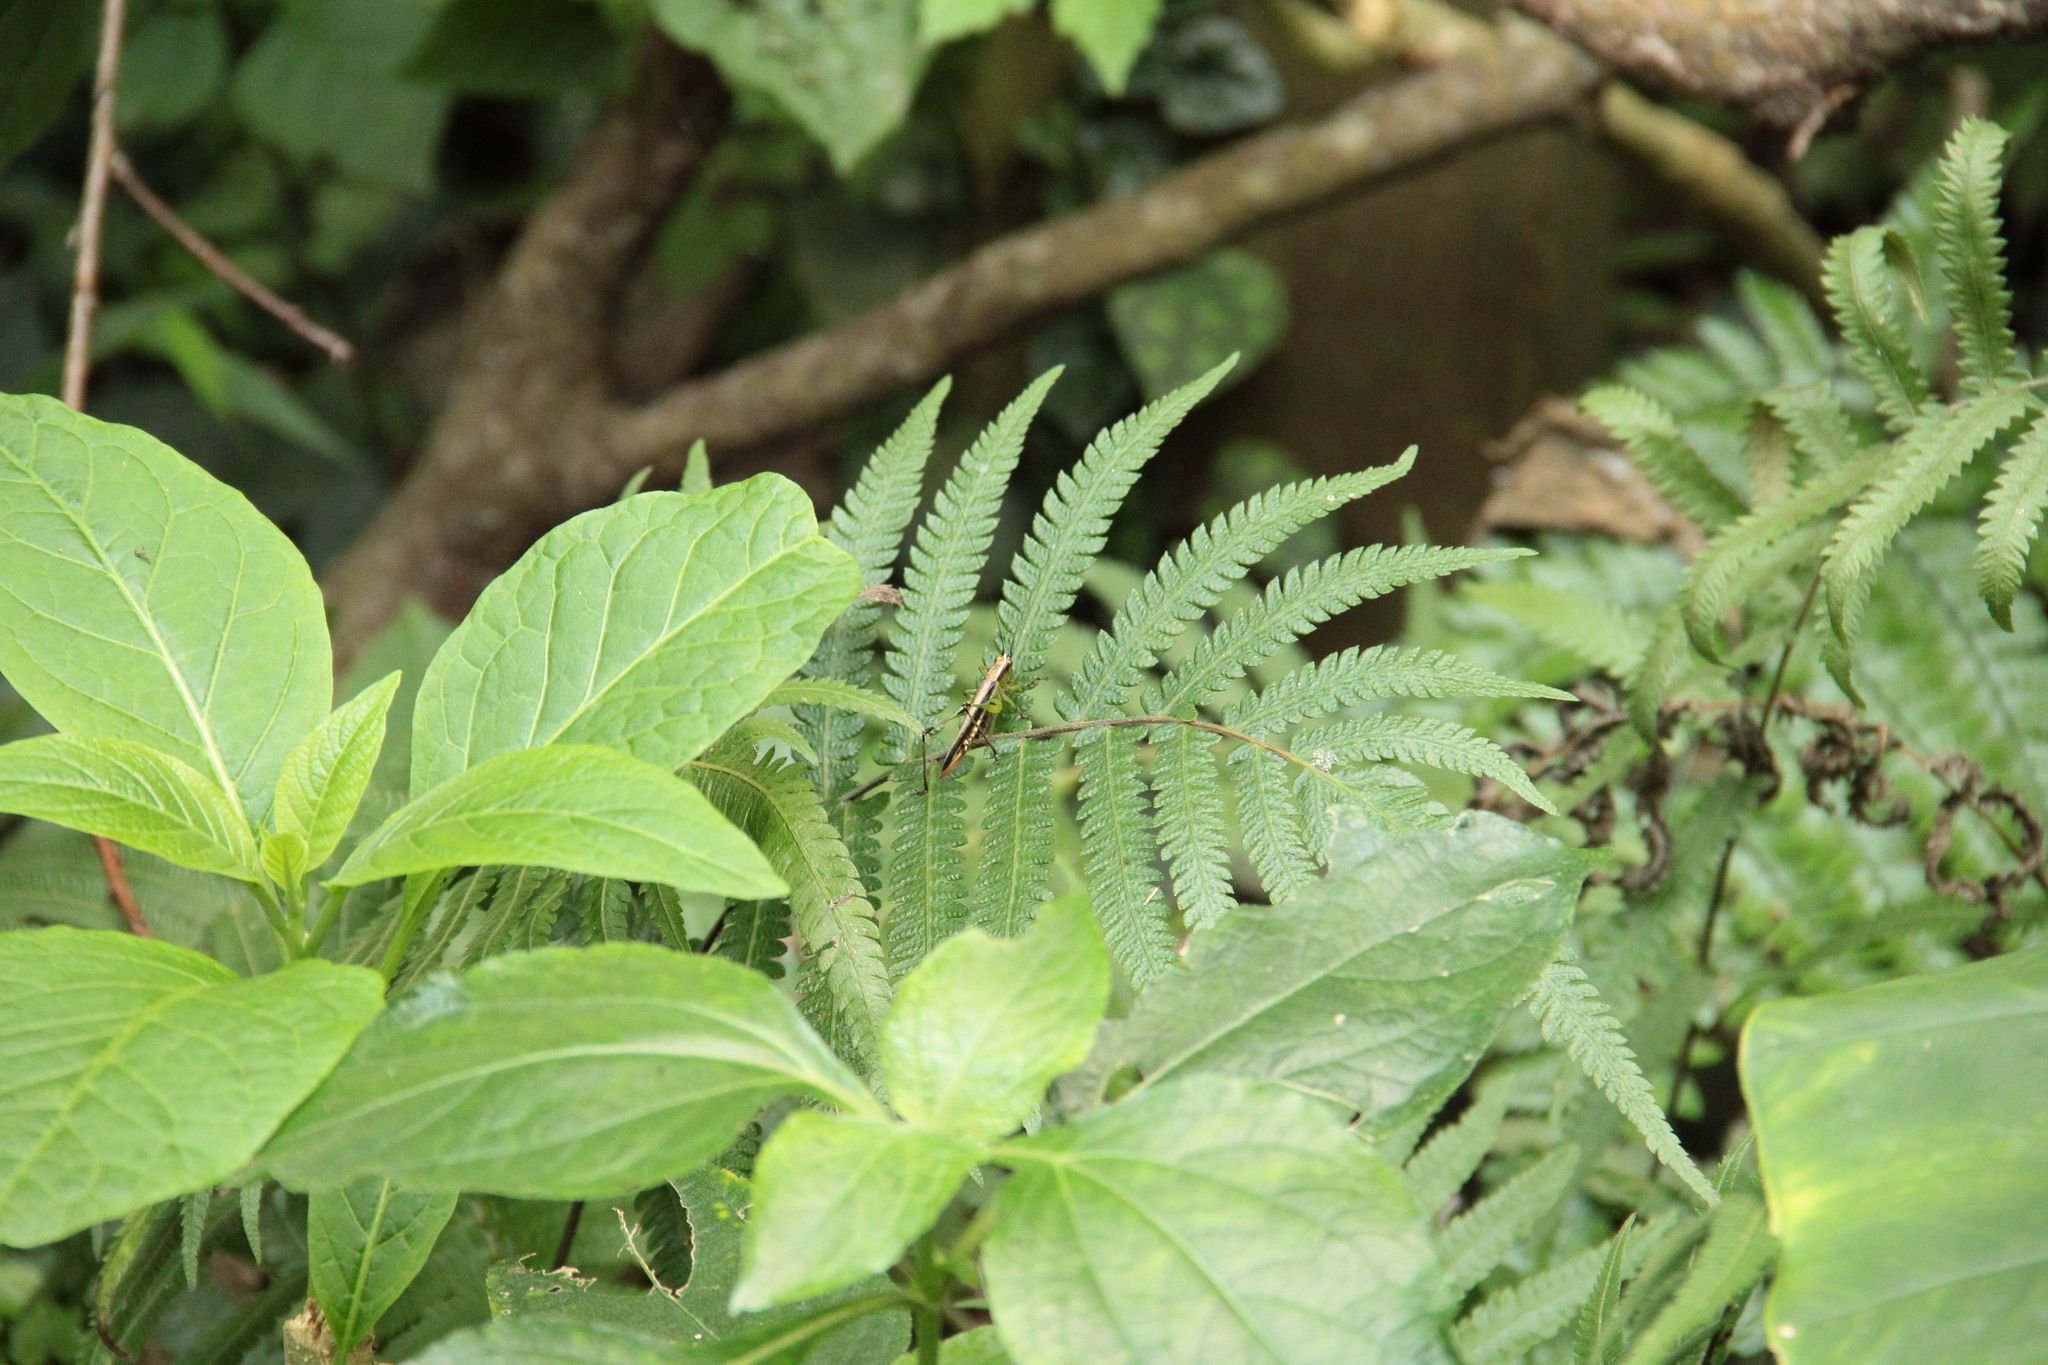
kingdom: Animalia
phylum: Arthropoda
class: Insecta
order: Orthoptera
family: Tettigoniidae
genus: Conocephalus
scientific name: Conocephalus melaenus
